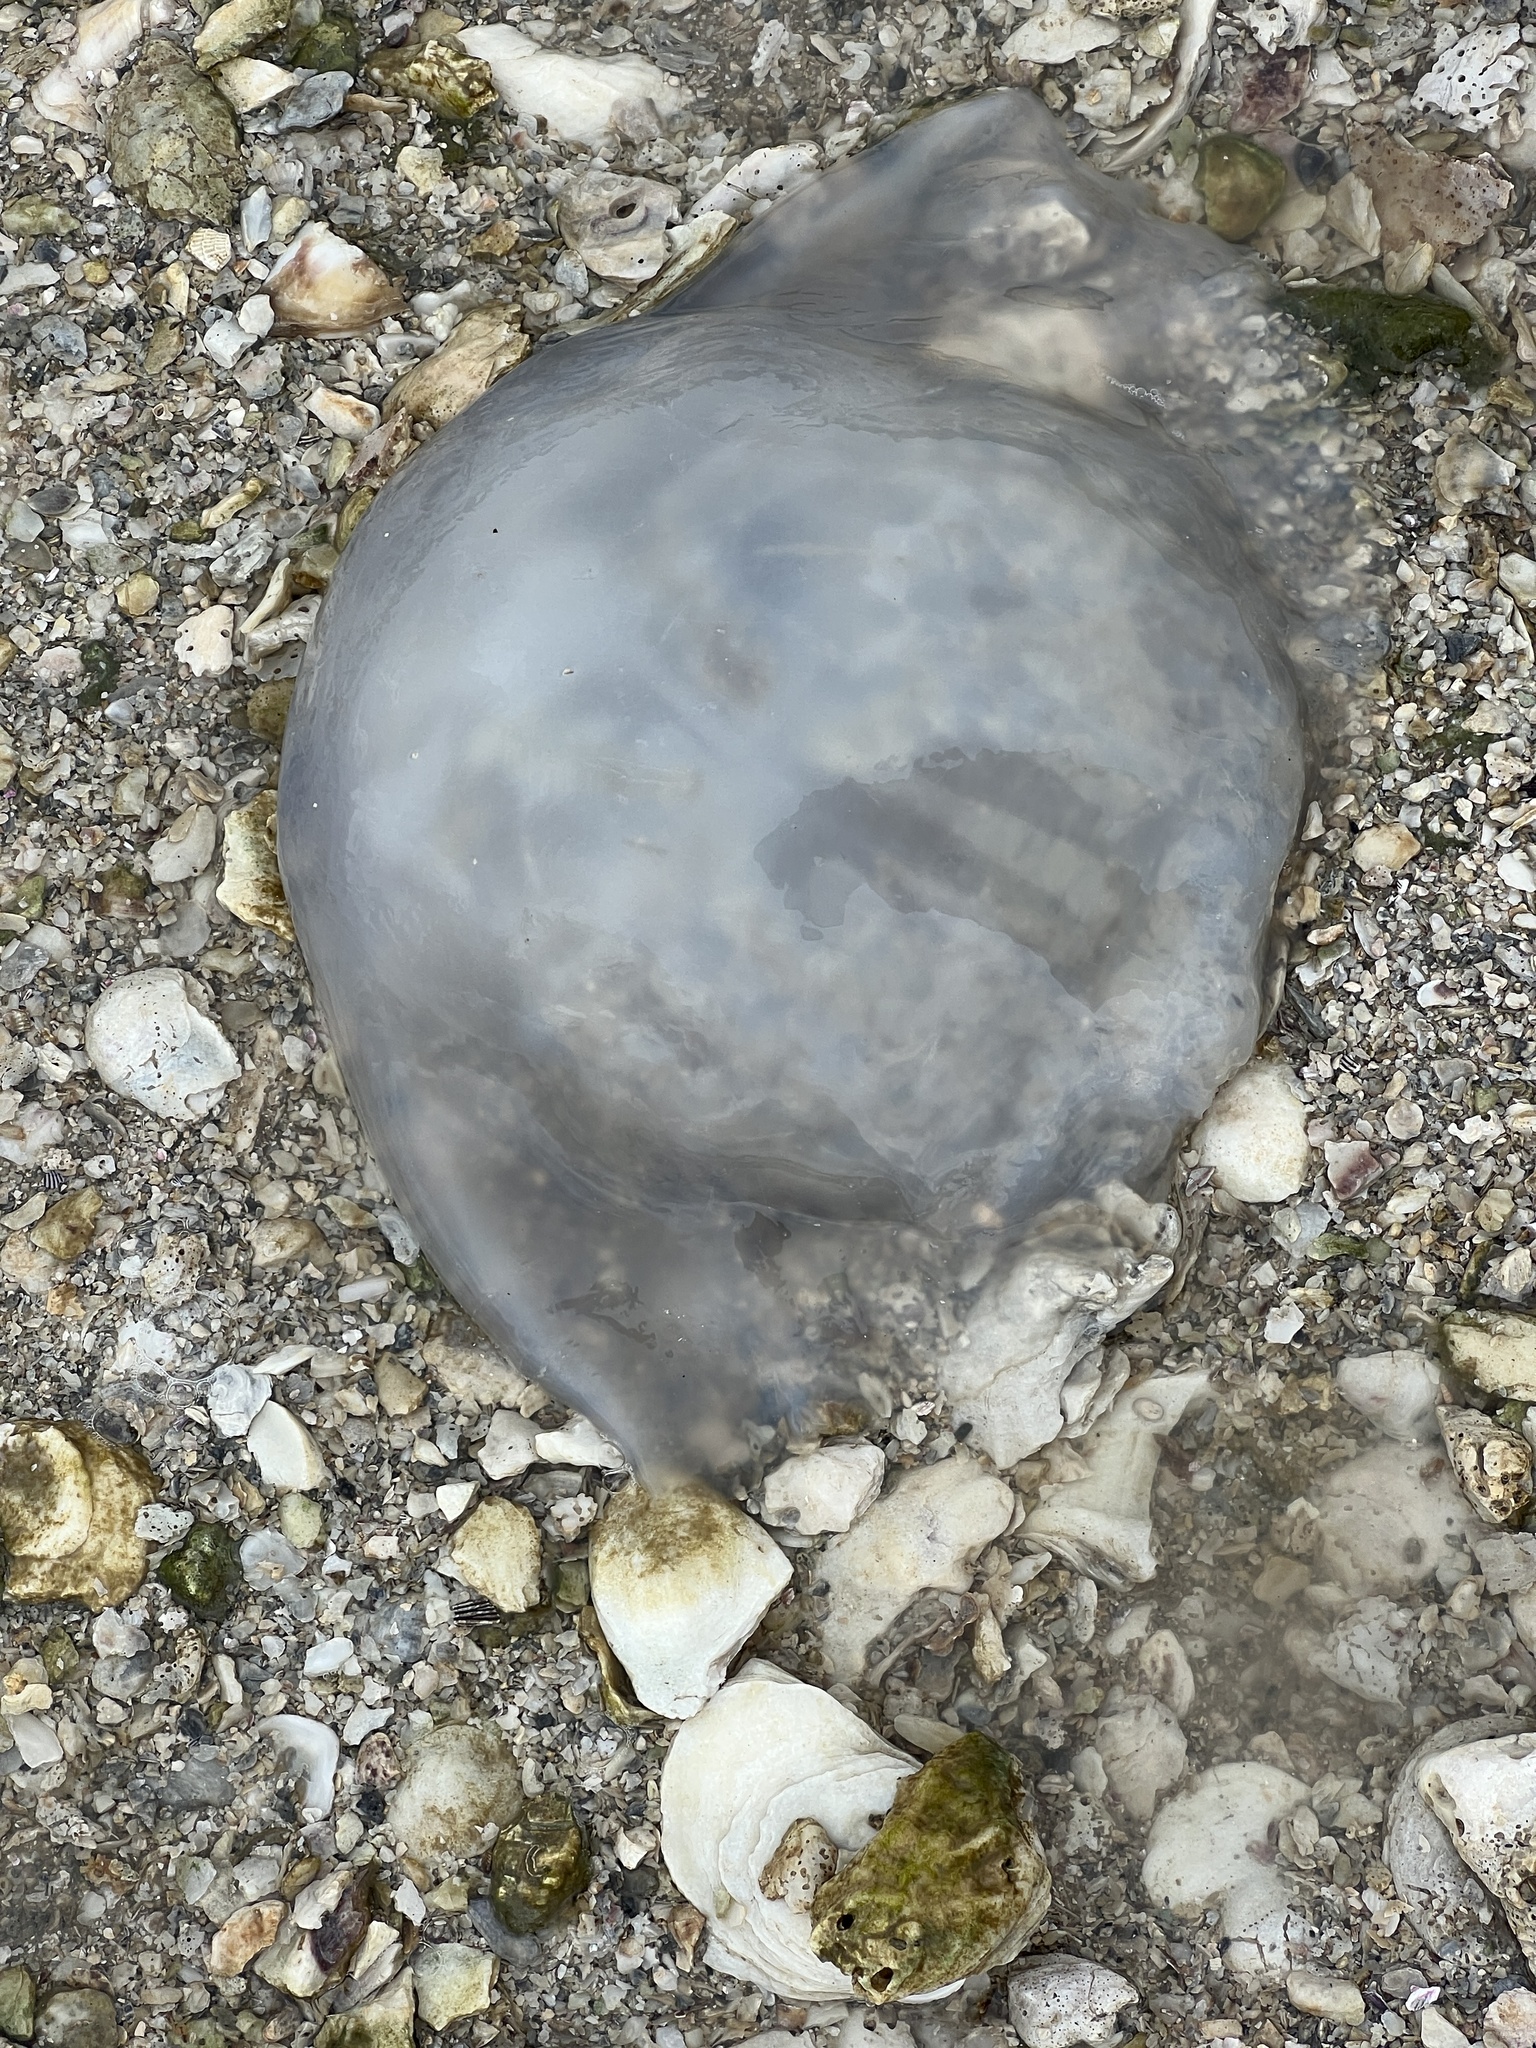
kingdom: Animalia
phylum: Cnidaria
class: Scyphozoa
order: Rhizostomeae
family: Stomolophidae
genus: Stomolophus
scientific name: Stomolophus meleagris
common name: Cabbagehead
